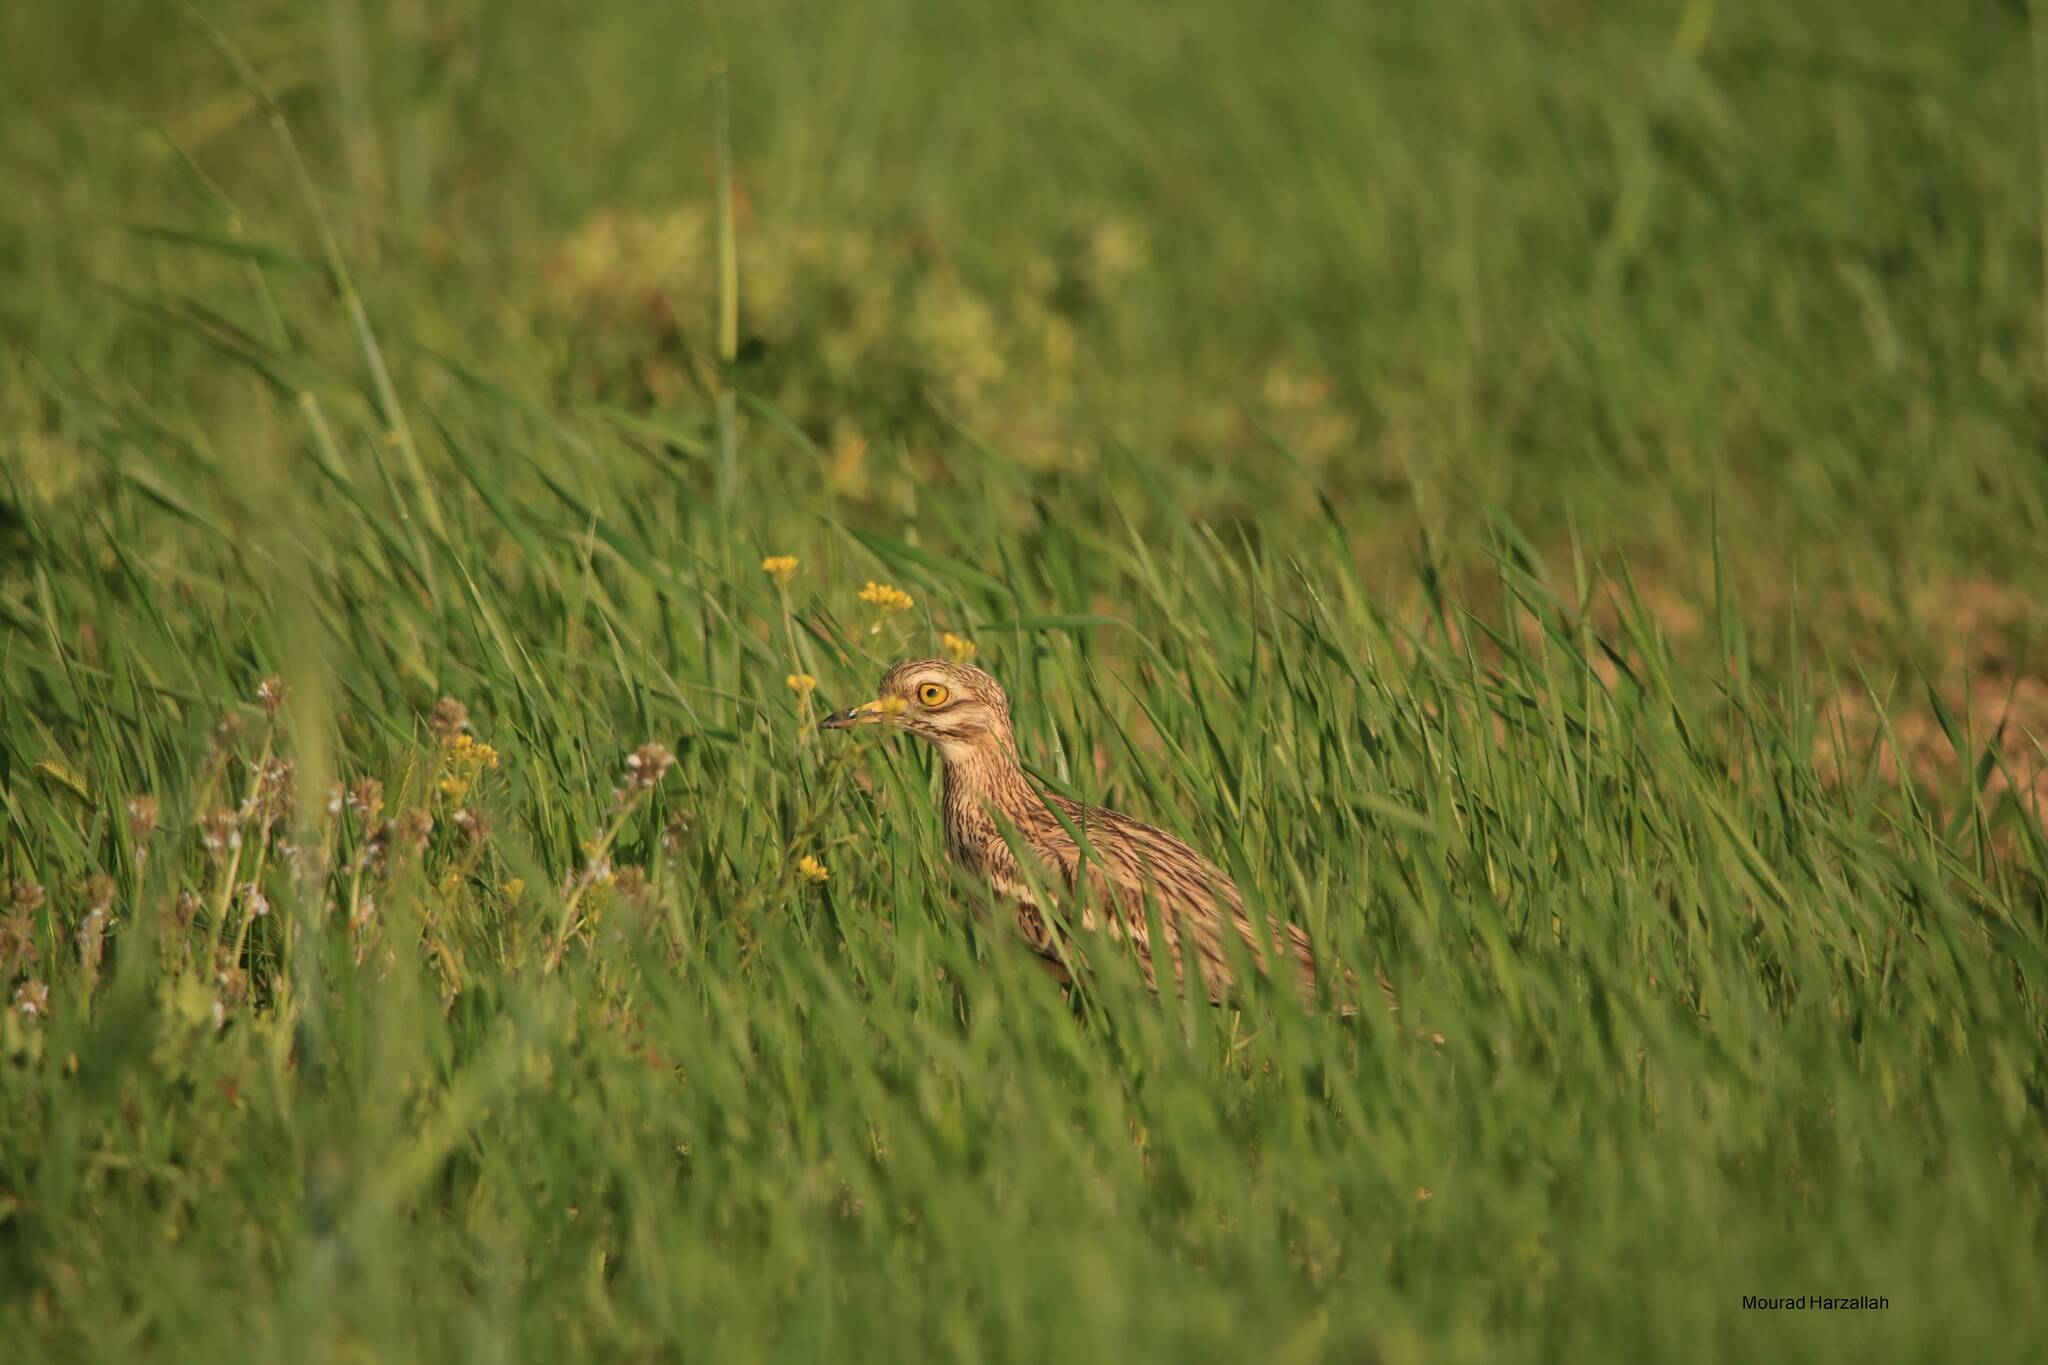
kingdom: Animalia
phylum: Chordata
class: Aves
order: Charadriiformes
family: Burhinidae
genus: Burhinus
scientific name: Burhinus oedicnemus
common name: Eurasian stone-curlew
